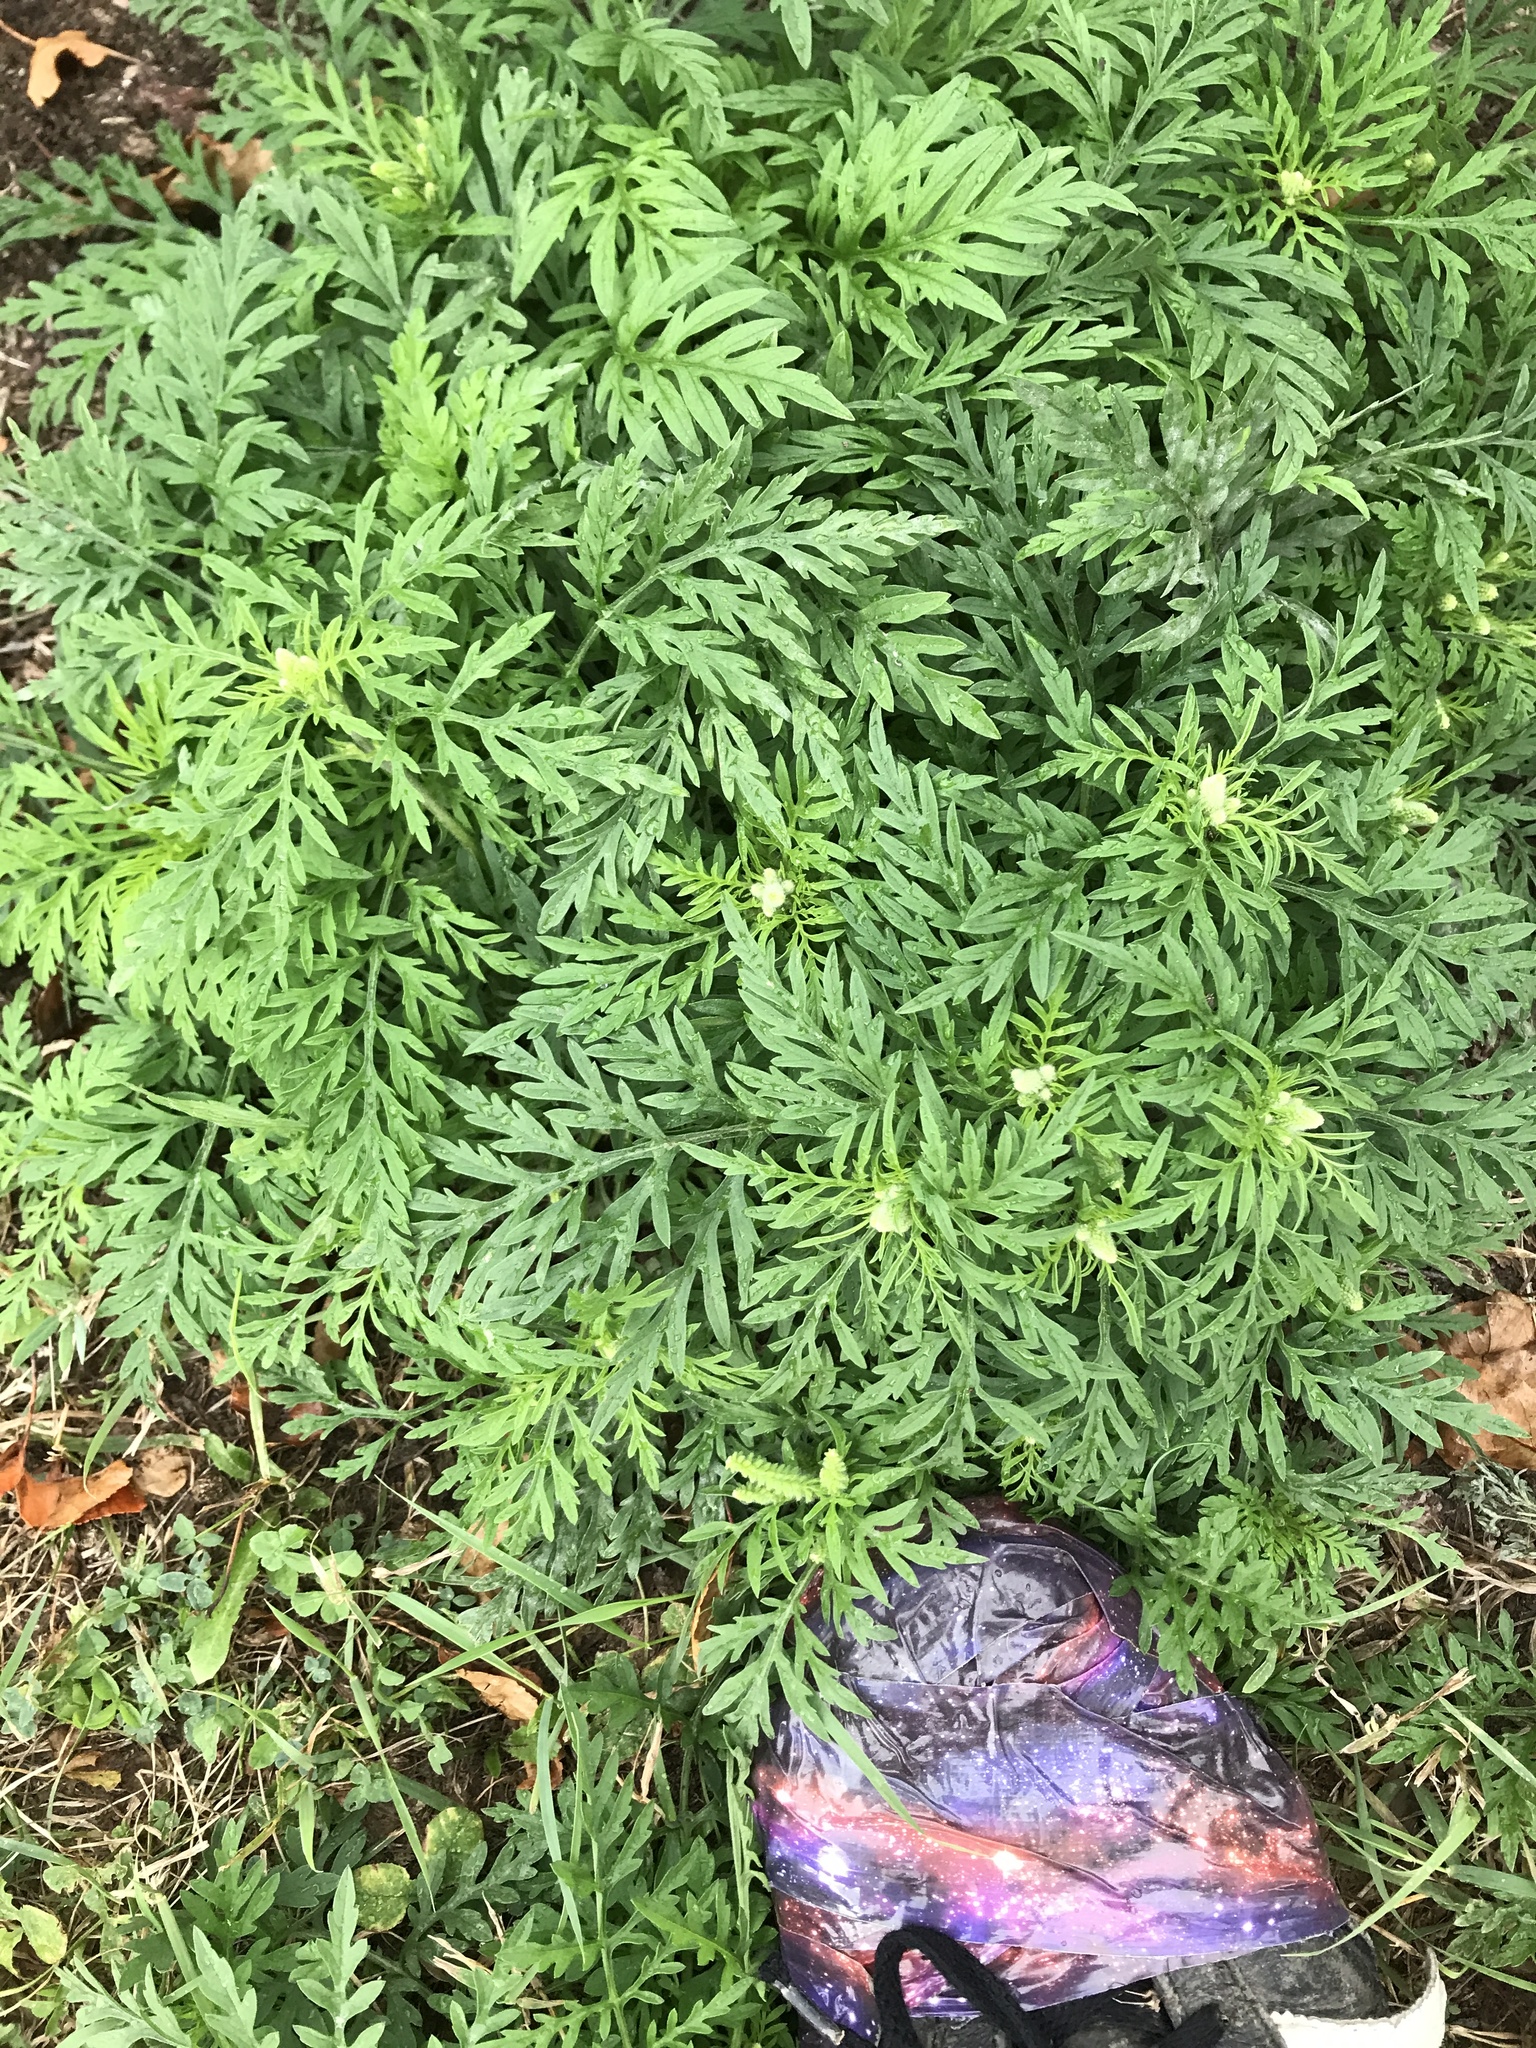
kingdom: Plantae
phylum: Tracheophyta
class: Magnoliopsida
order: Asterales
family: Asteraceae
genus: Ambrosia
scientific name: Ambrosia artemisiifolia
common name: Annual ragweed
